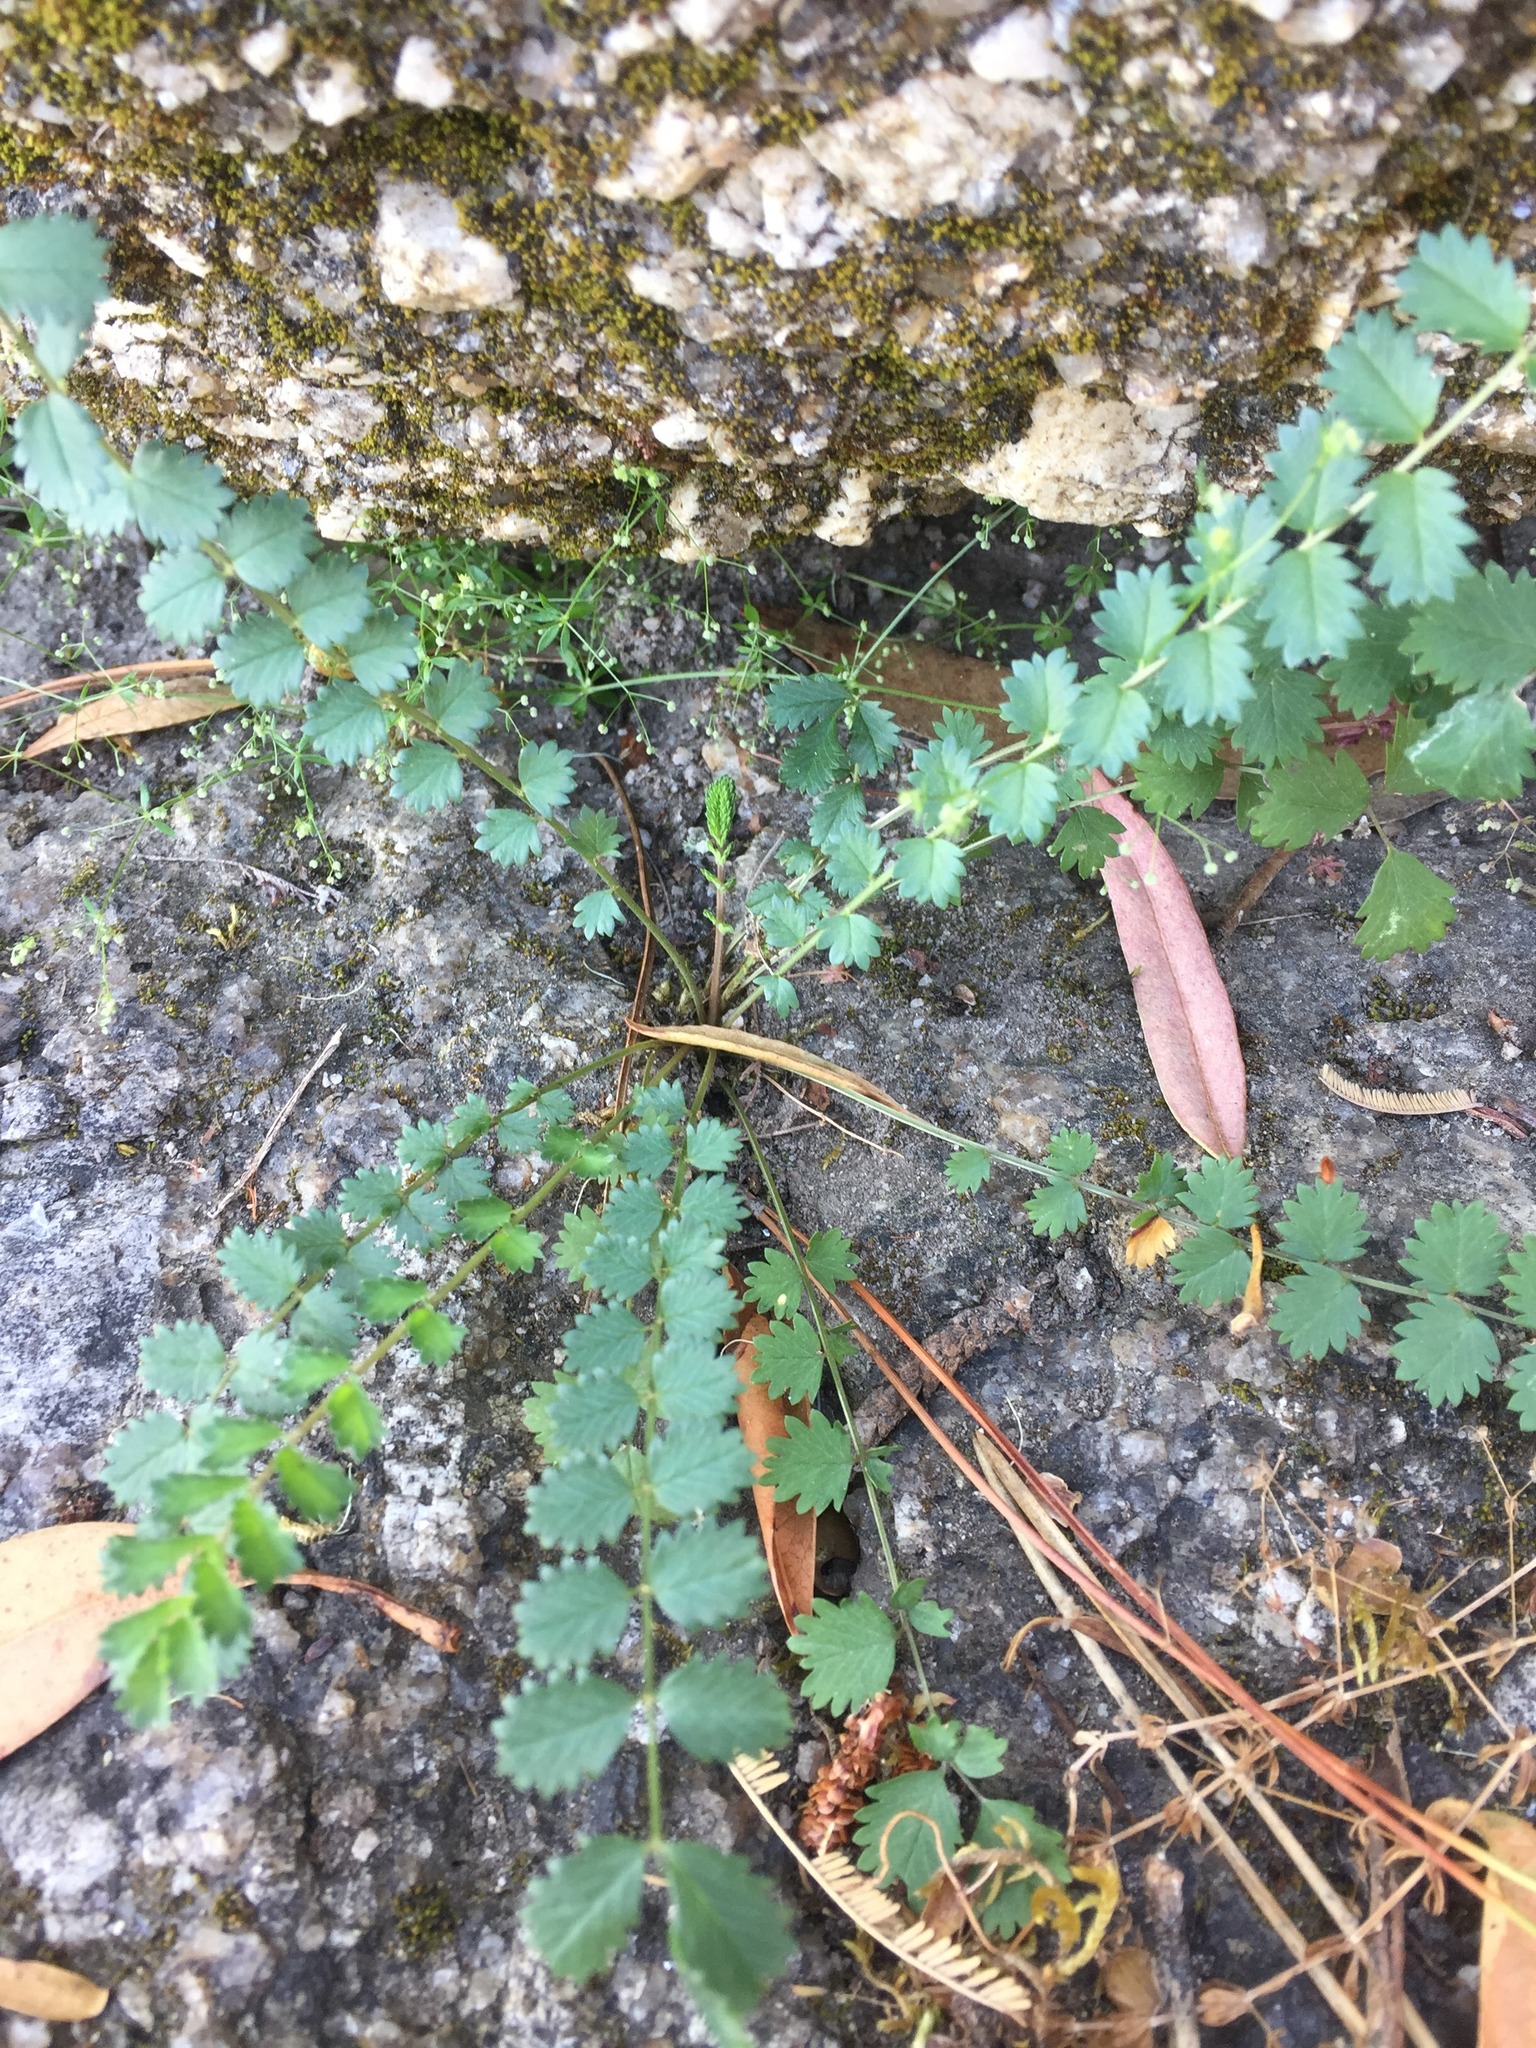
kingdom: Plantae
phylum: Tracheophyta
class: Magnoliopsida
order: Rosales
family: Rosaceae
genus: Poterium
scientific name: Poterium sanguisorba
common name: Salad burnet
